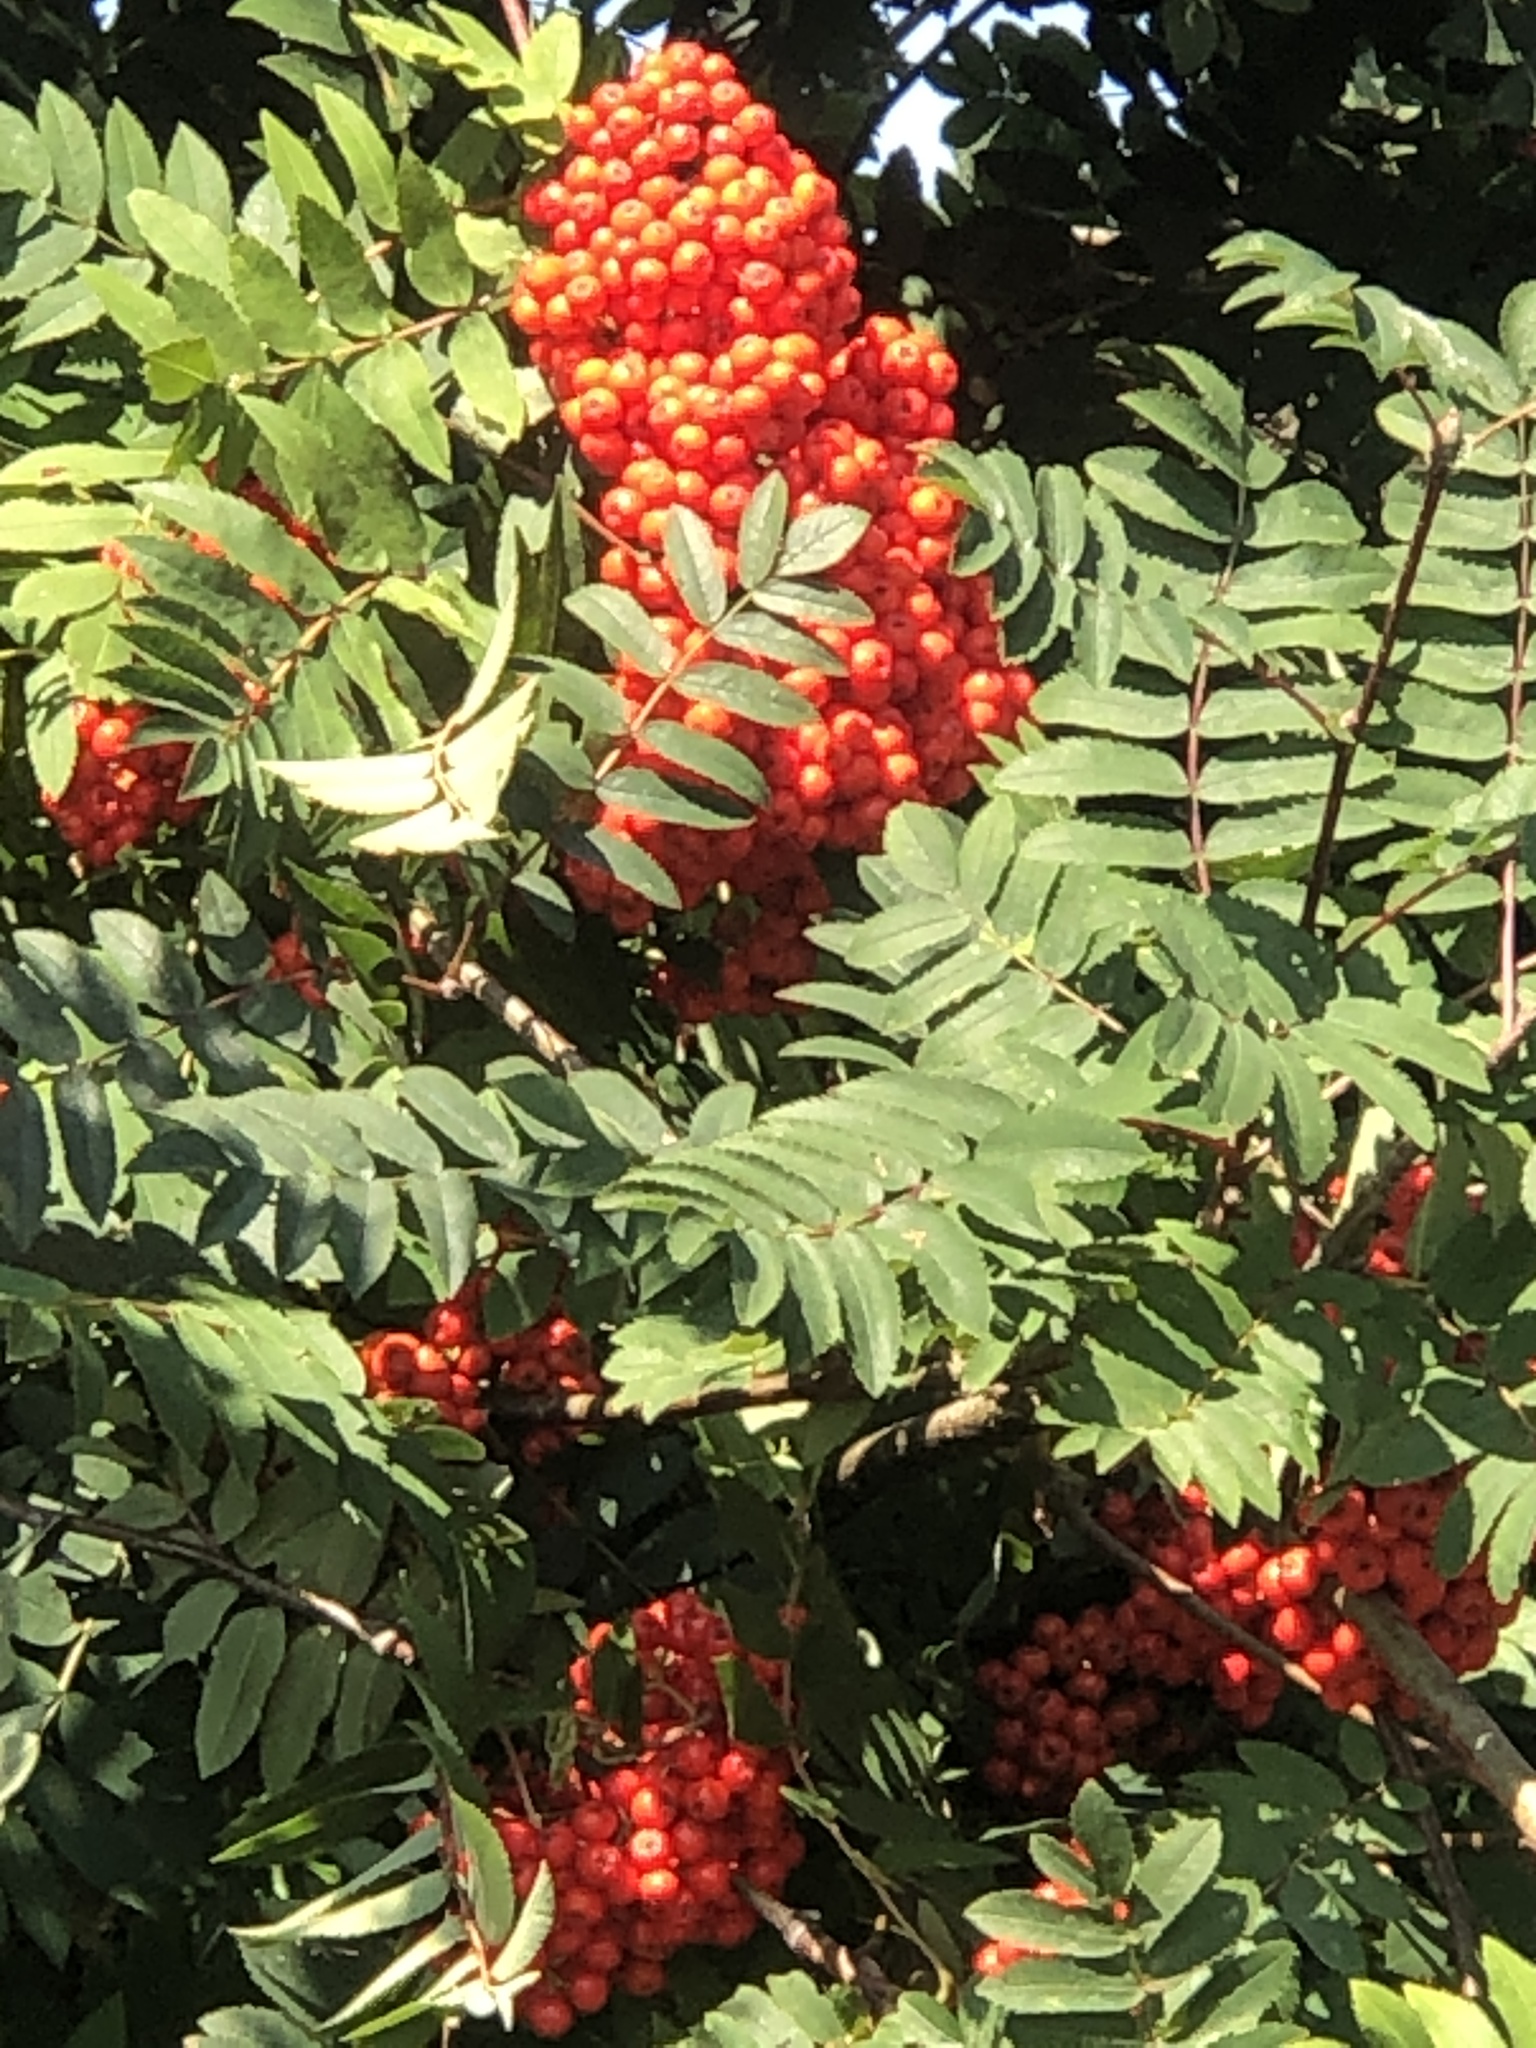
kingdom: Plantae
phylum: Tracheophyta
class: Magnoliopsida
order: Rosales
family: Rosaceae
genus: Sorbus
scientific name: Sorbus aucuparia
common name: Rowan
